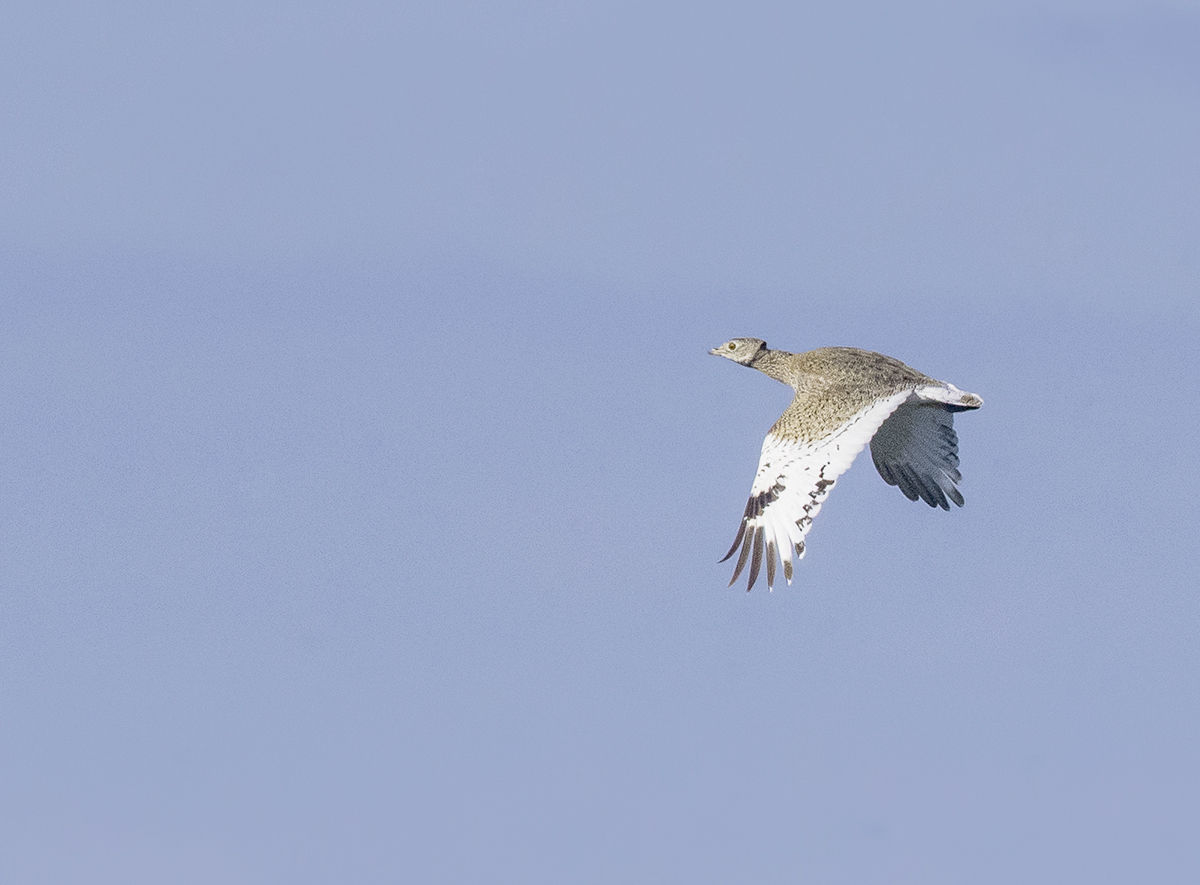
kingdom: Animalia
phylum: Chordata
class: Aves
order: Otidiformes
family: Otididae
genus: Tetrax
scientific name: Tetrax tetrax
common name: Little bustard
